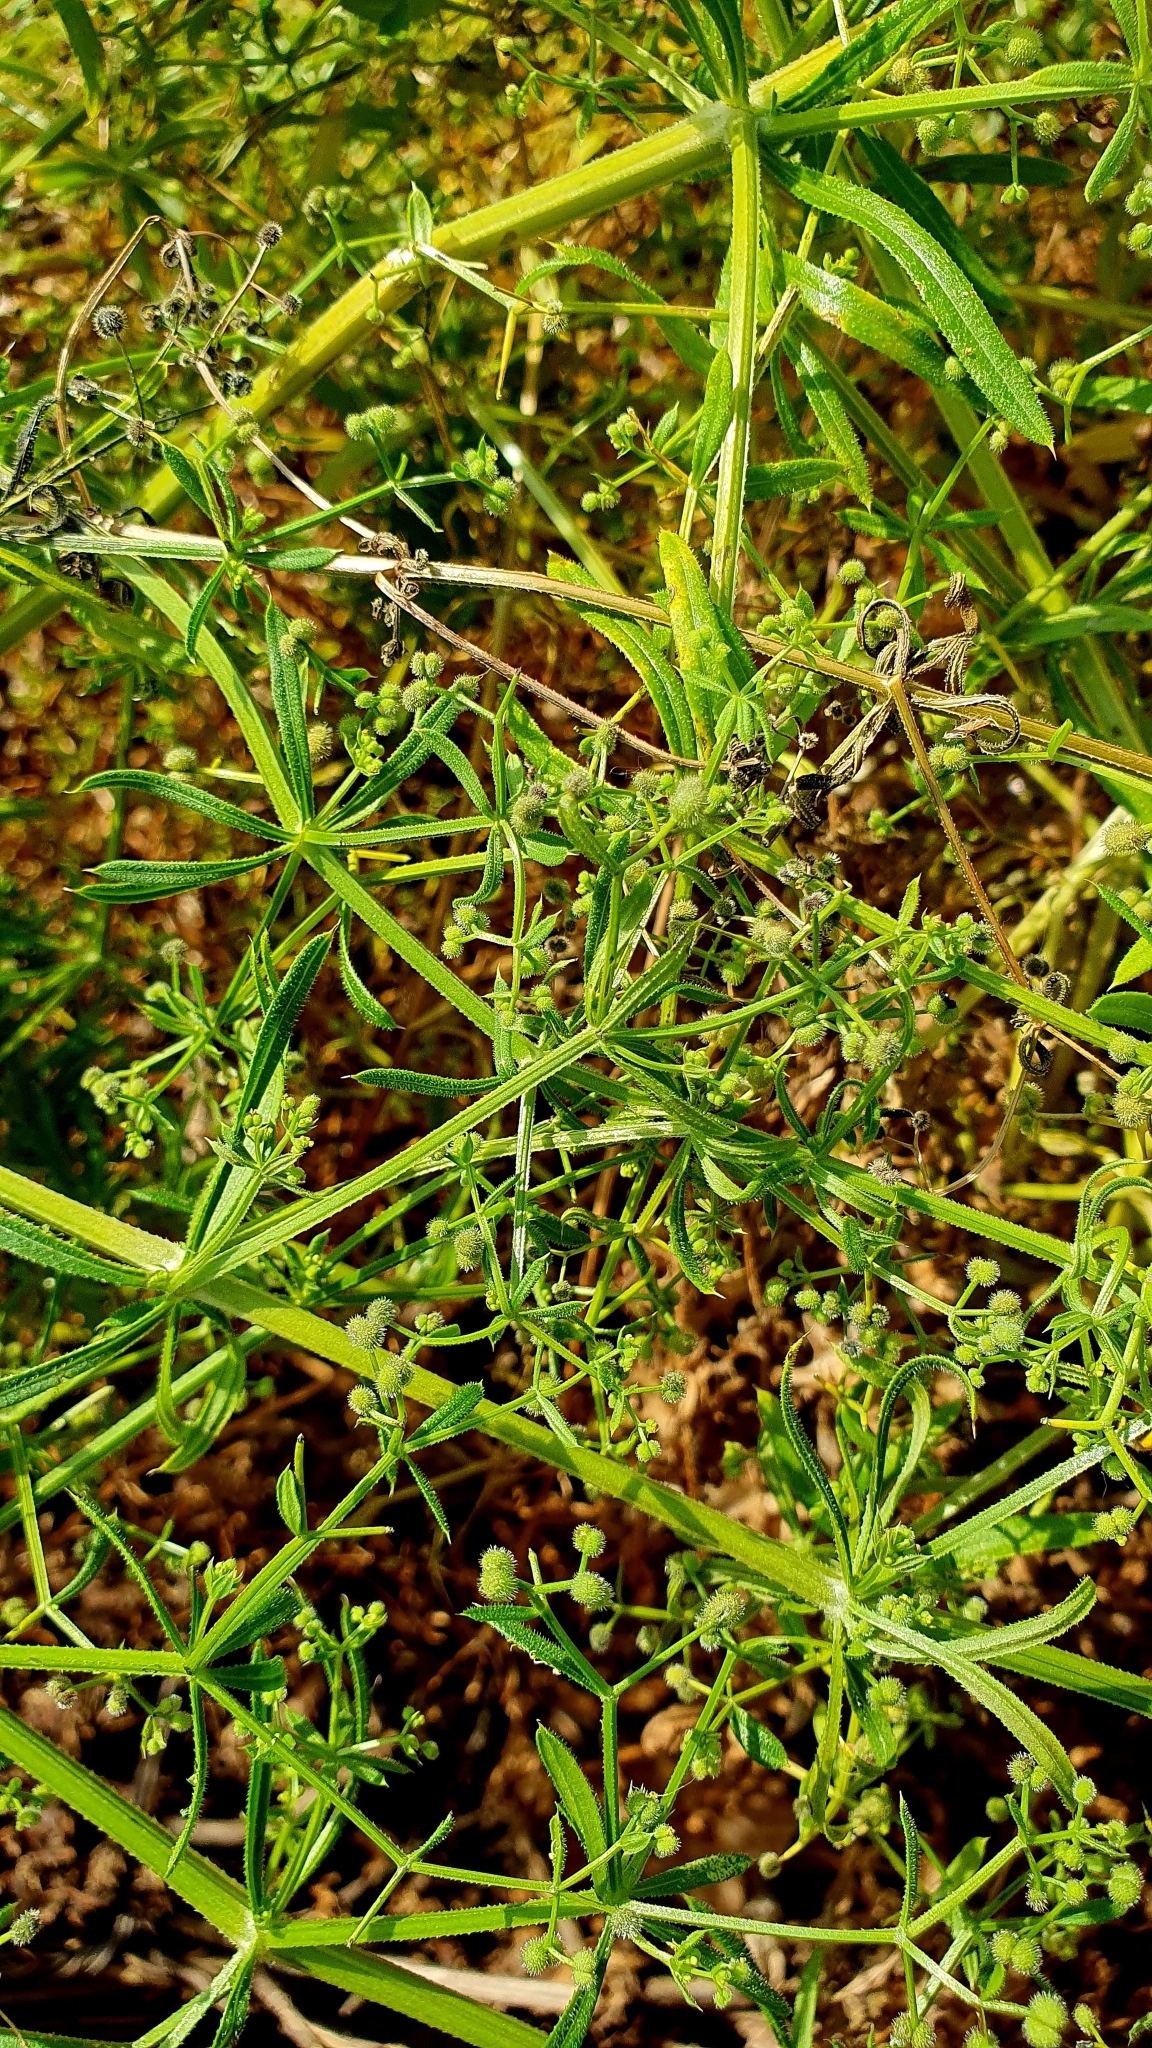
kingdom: Plantae
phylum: Tracheophyta
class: Magnoliopsida
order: Gentianales
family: Rubiaceae
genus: Galium
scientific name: Galium
